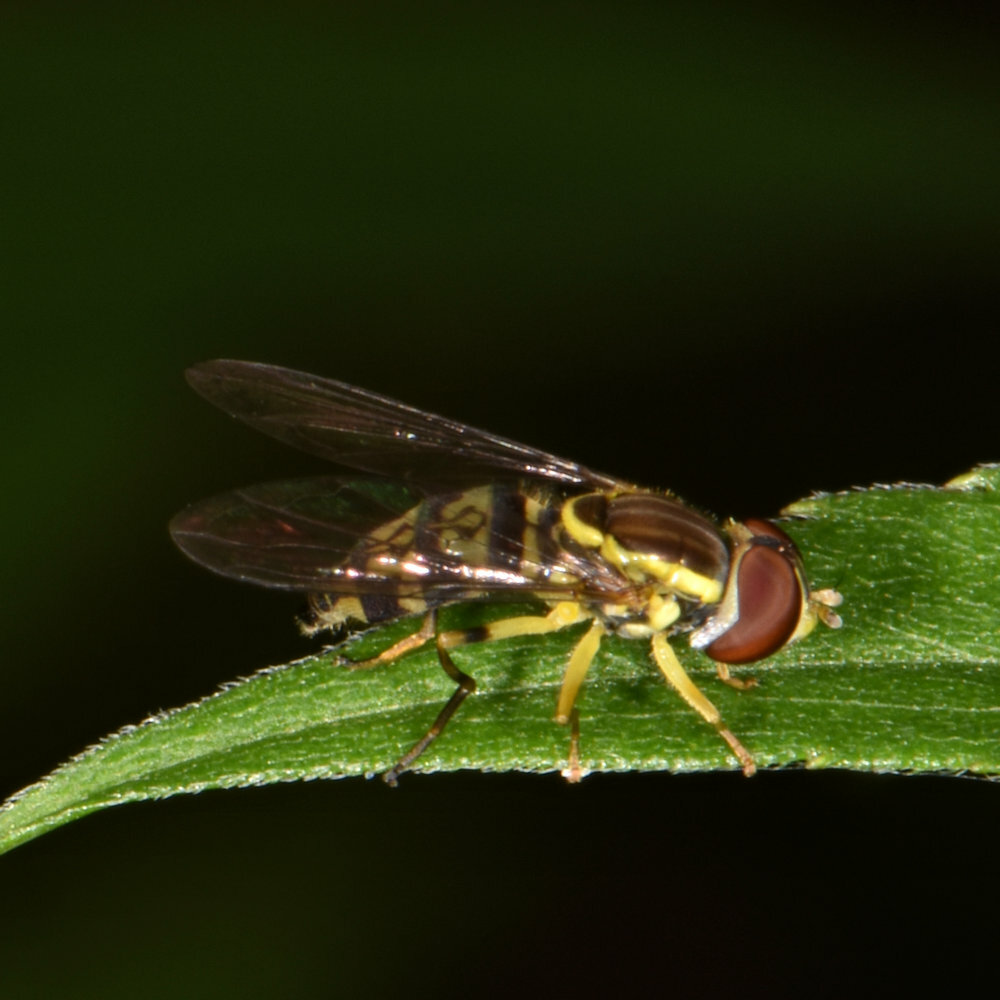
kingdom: Animalia
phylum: Arthropoda
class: Insecta
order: Diptera
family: Syrphidae
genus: Toxomerus
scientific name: Toxomerus geminatus
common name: Eastern calligrapher
